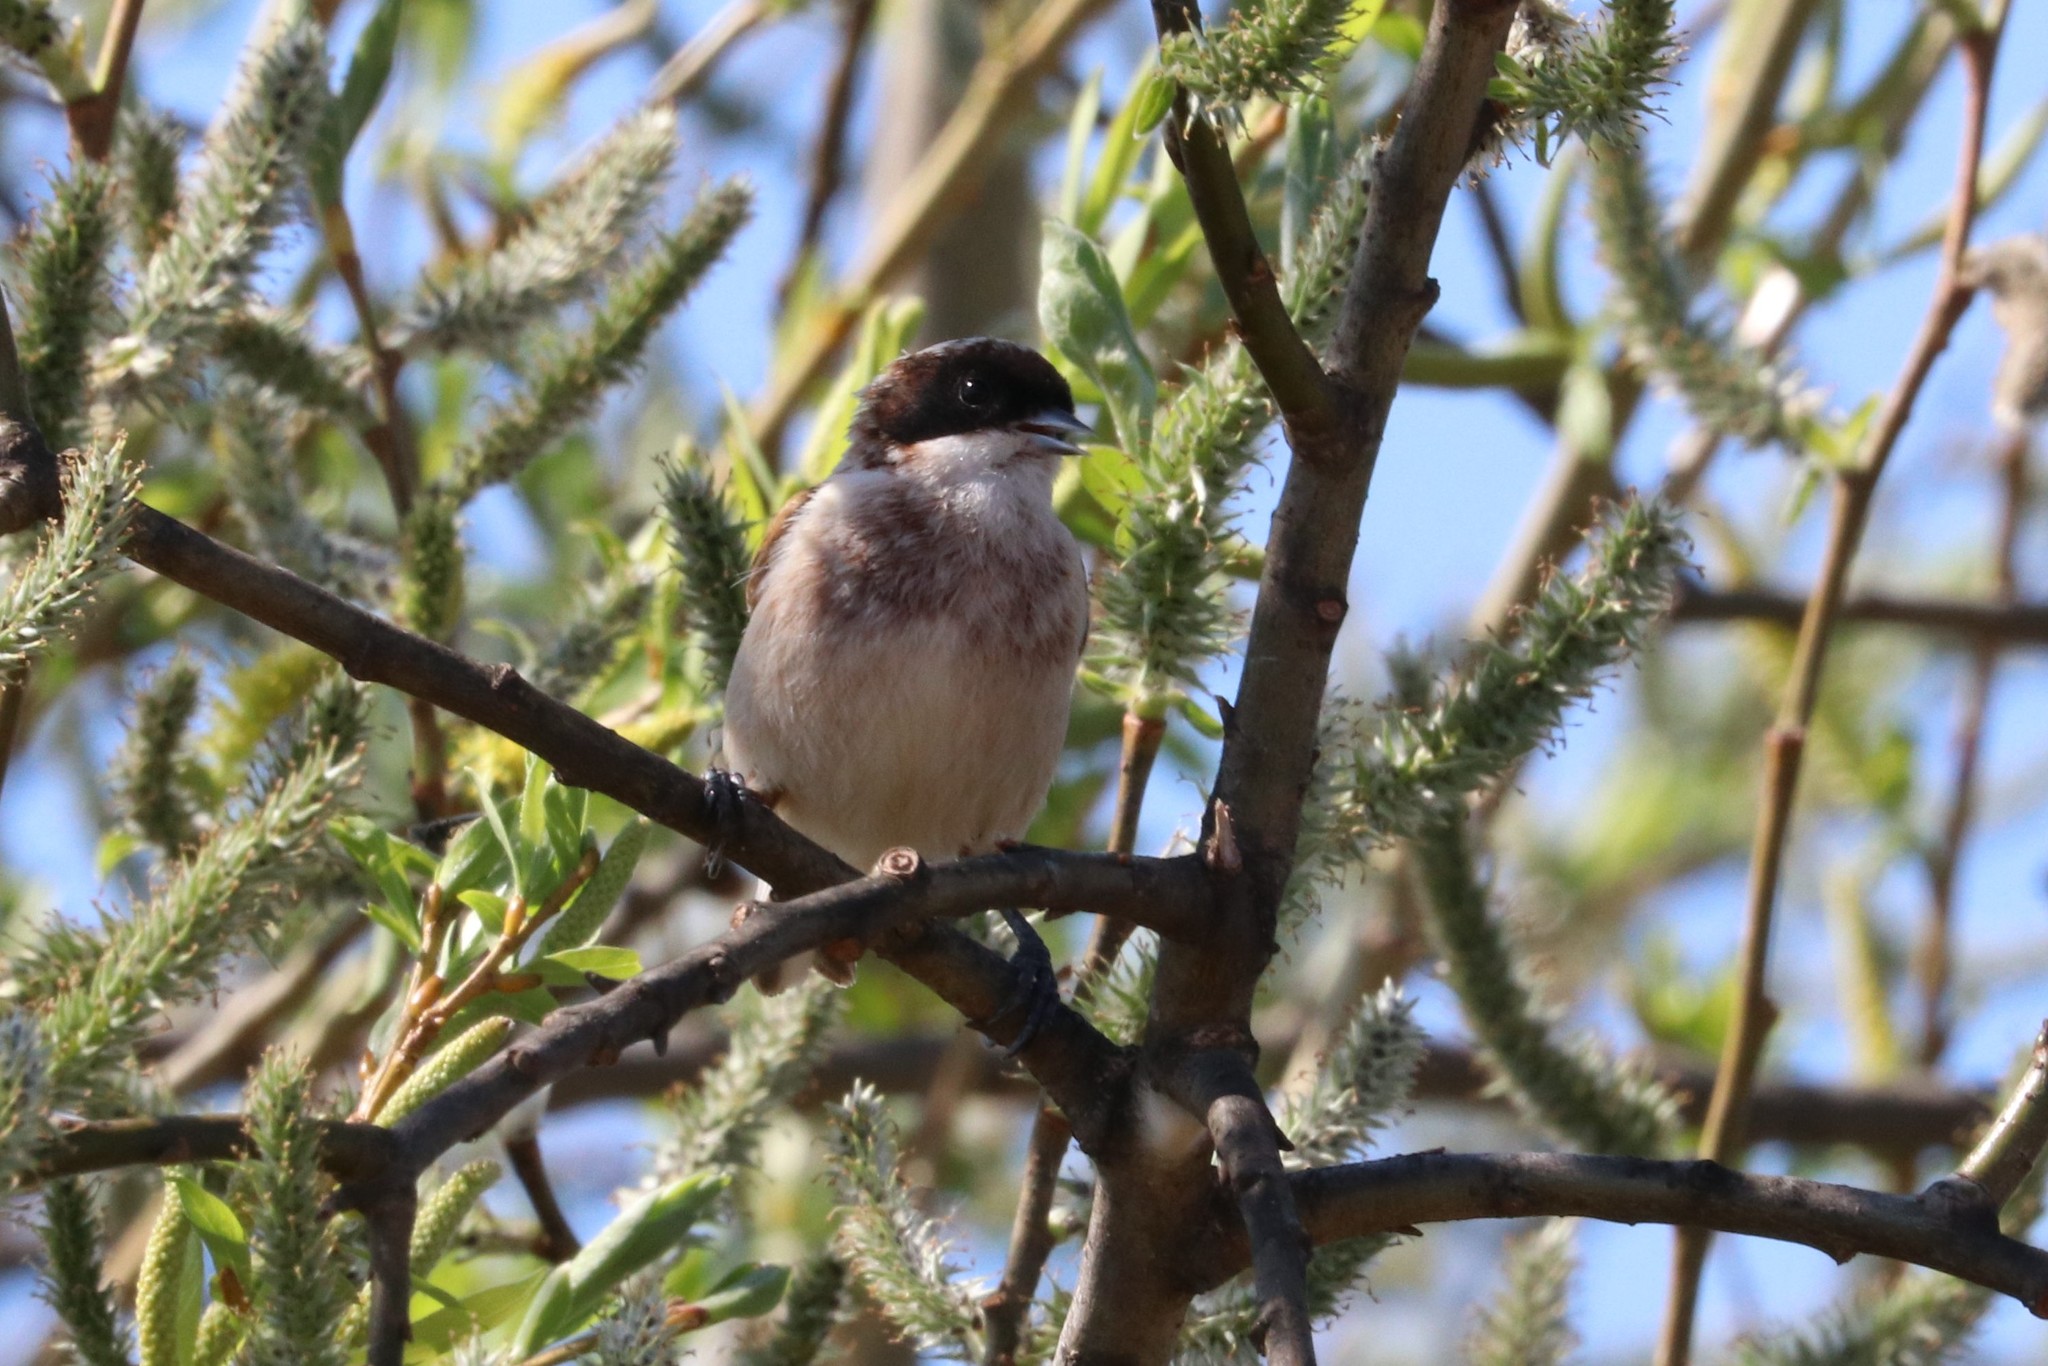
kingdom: Animalia
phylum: Chordata
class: Aves
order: Passeriformes
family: Remizidae
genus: Remiz
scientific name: Remiz pendulinus
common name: Eurasian penduline tit
